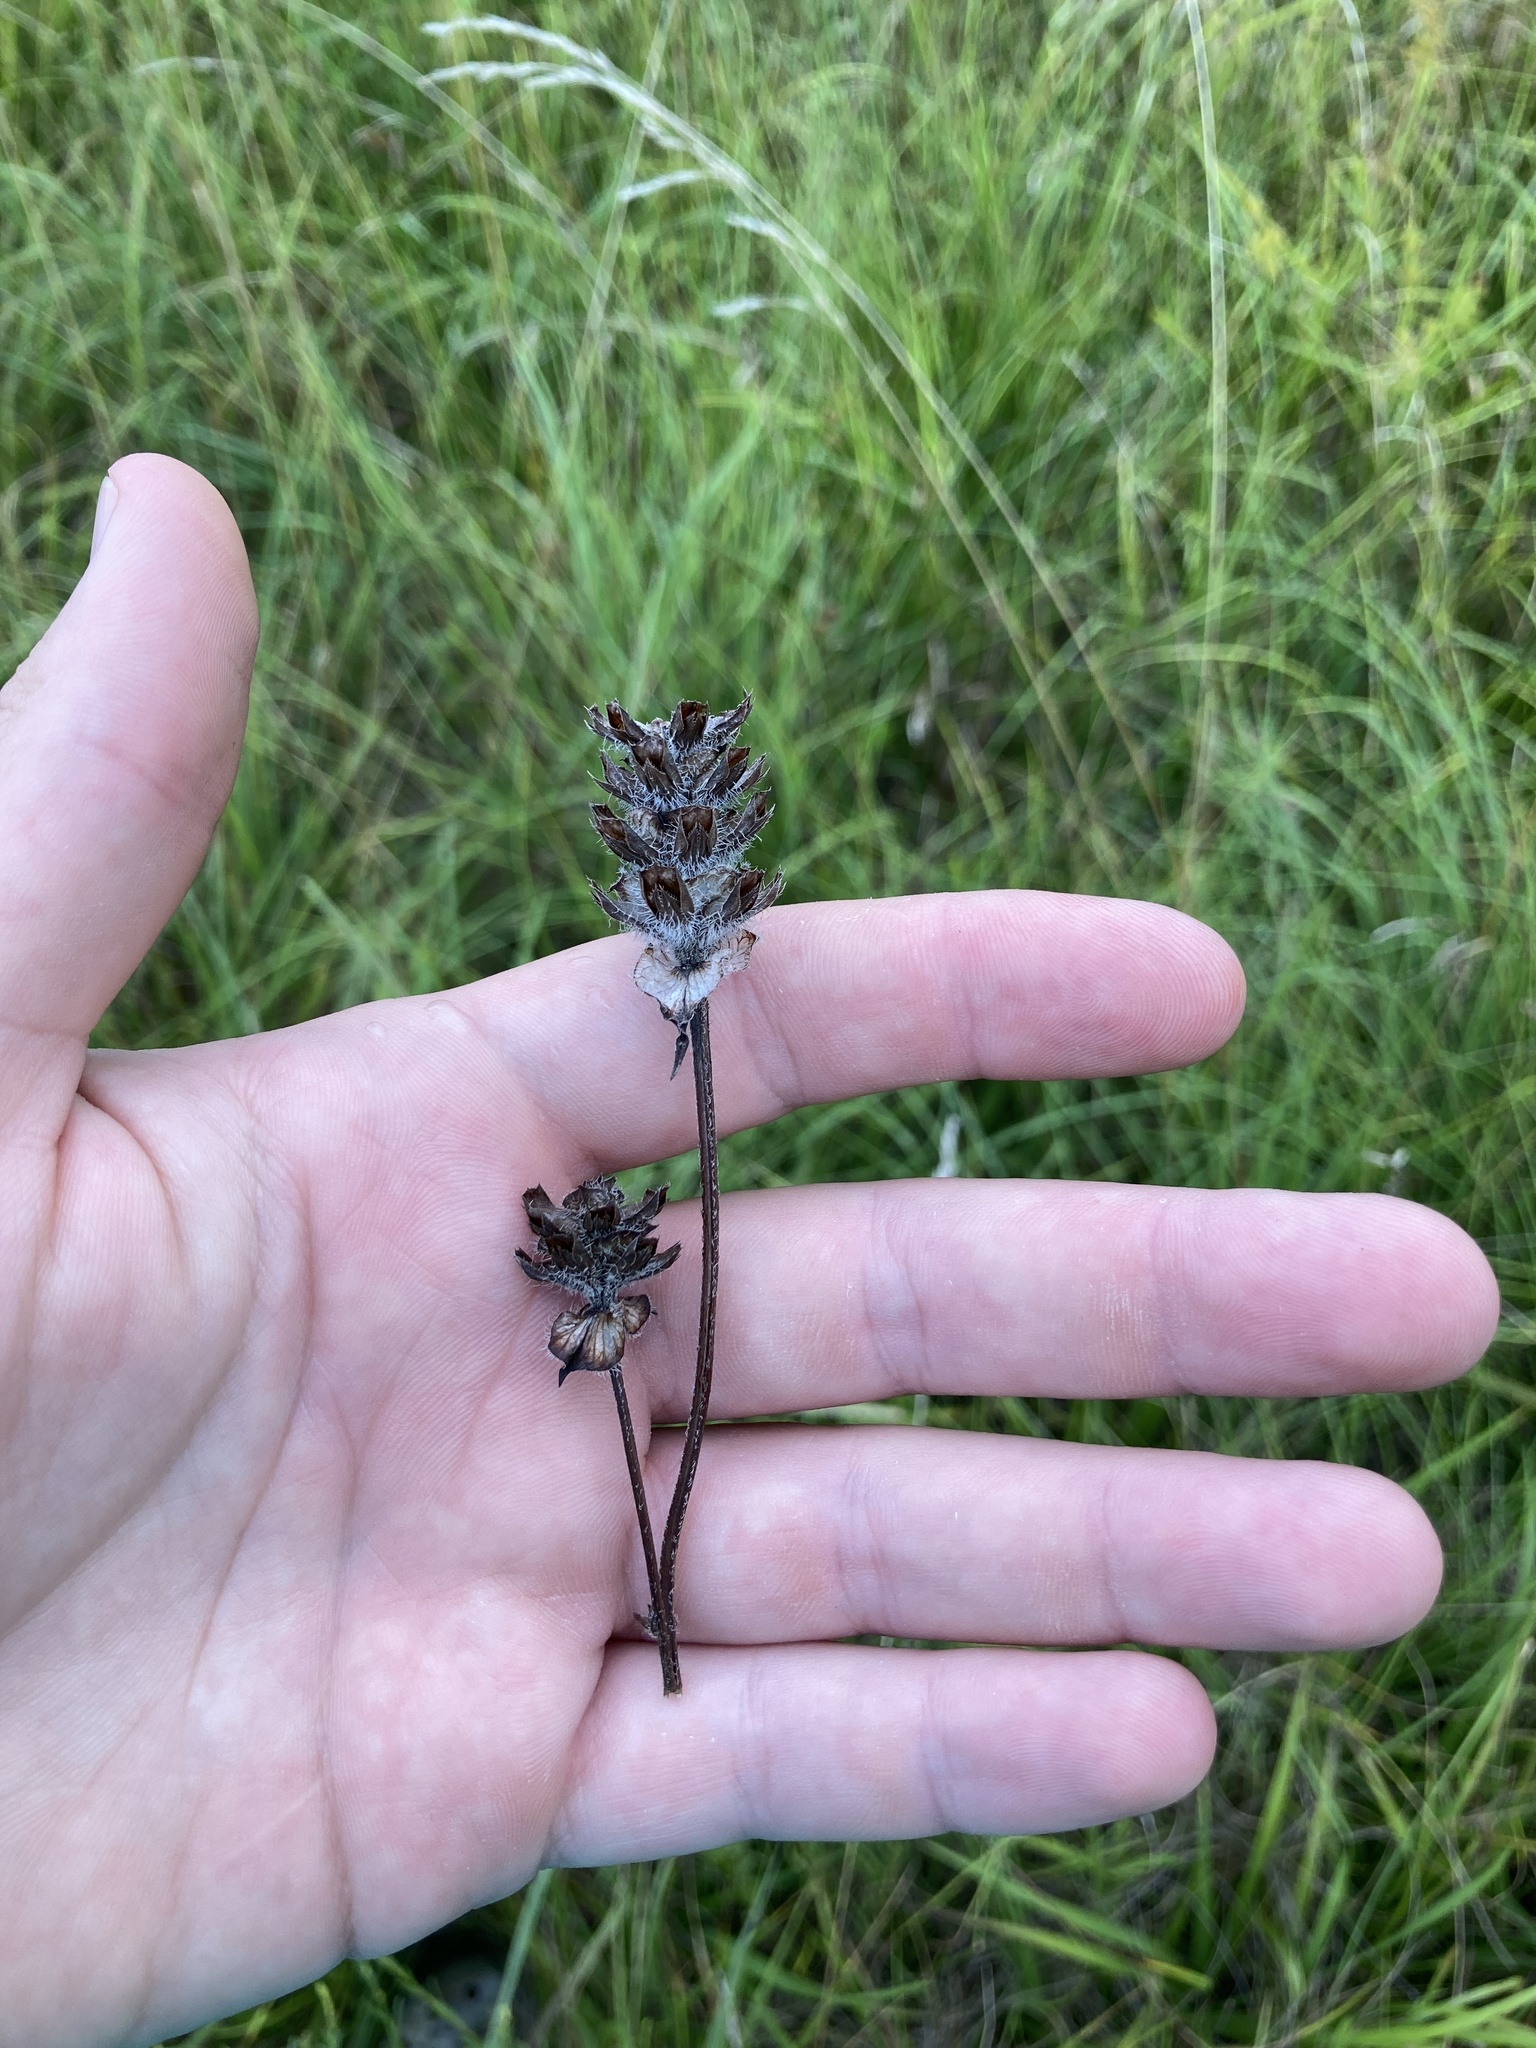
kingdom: Plantae
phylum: Tracheophyta
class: Magnoliopsida
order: Lamiales
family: Lamiaceae
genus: Prunella
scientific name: Prunella vulgaris
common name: Heal-all
